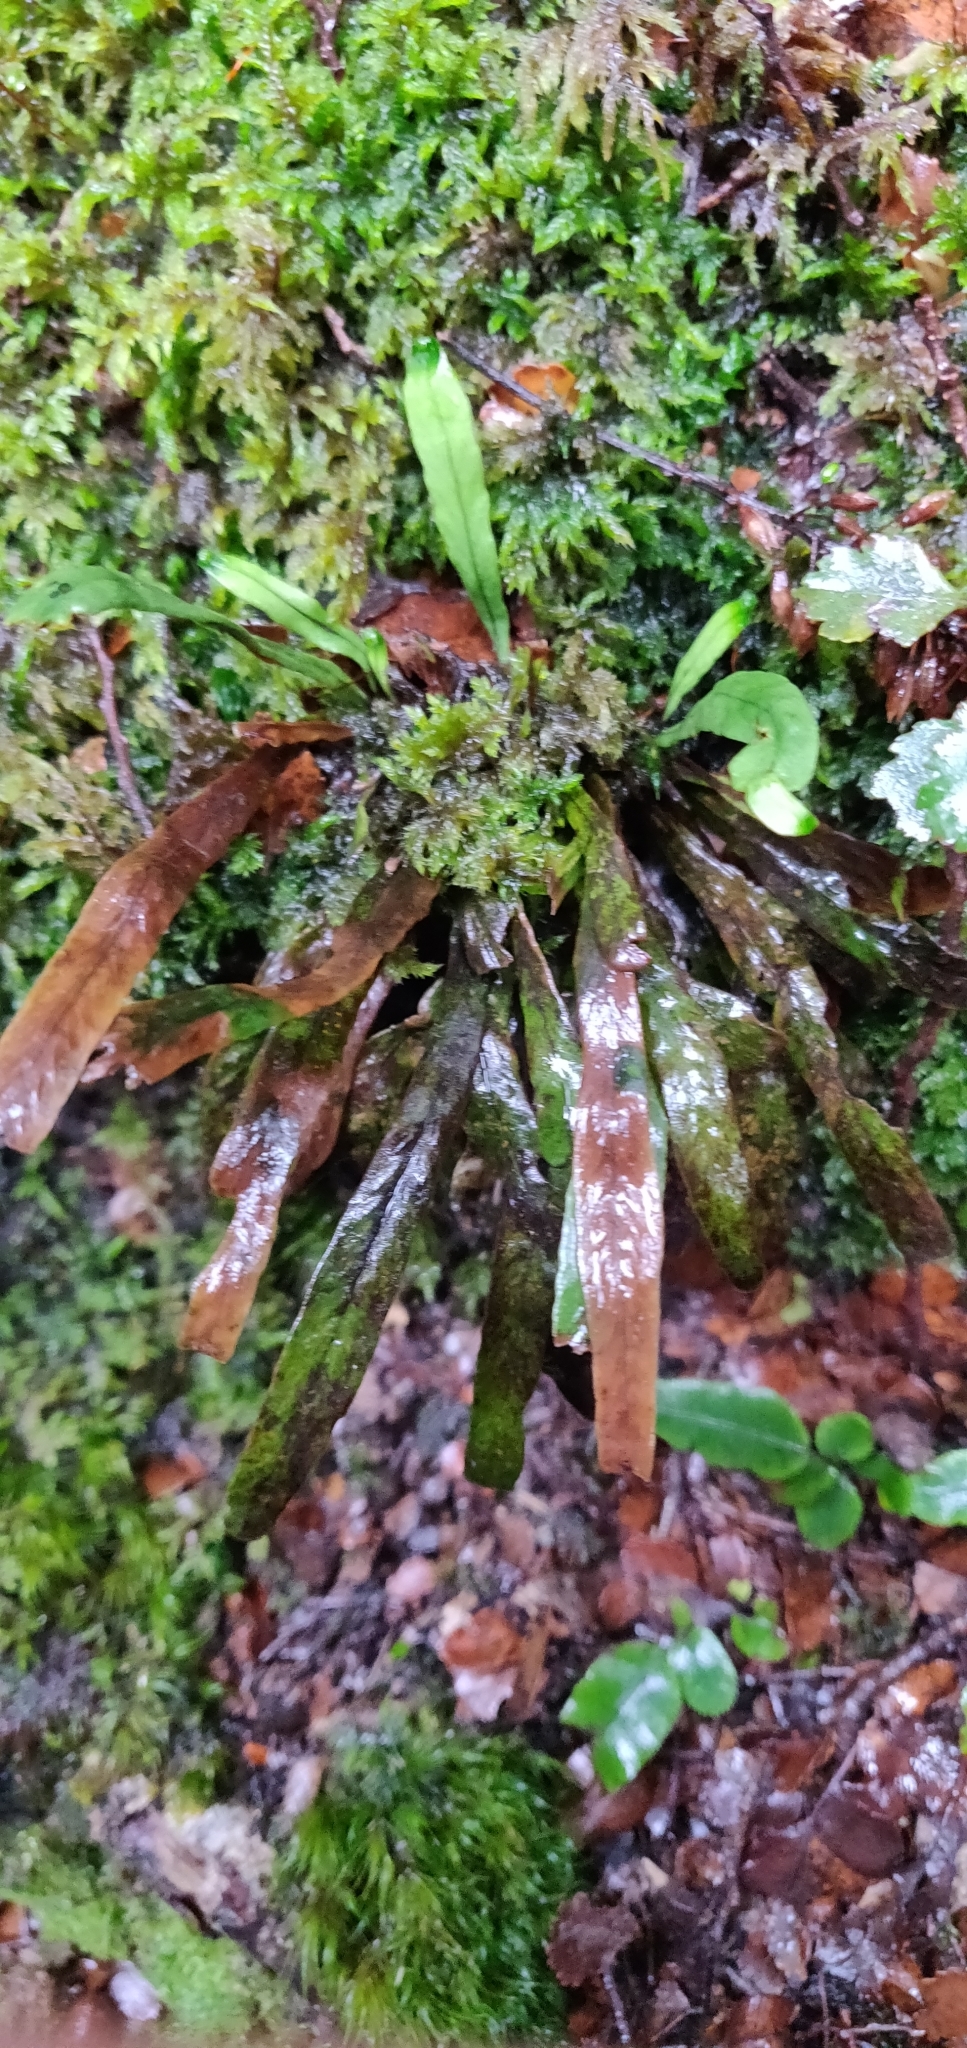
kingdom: Plantae
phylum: Tracheophyta
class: Polypodiopsida
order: Polypodiales
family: Polypodiaceae
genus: Notogrammitis
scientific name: Notogrammitis billardierei
